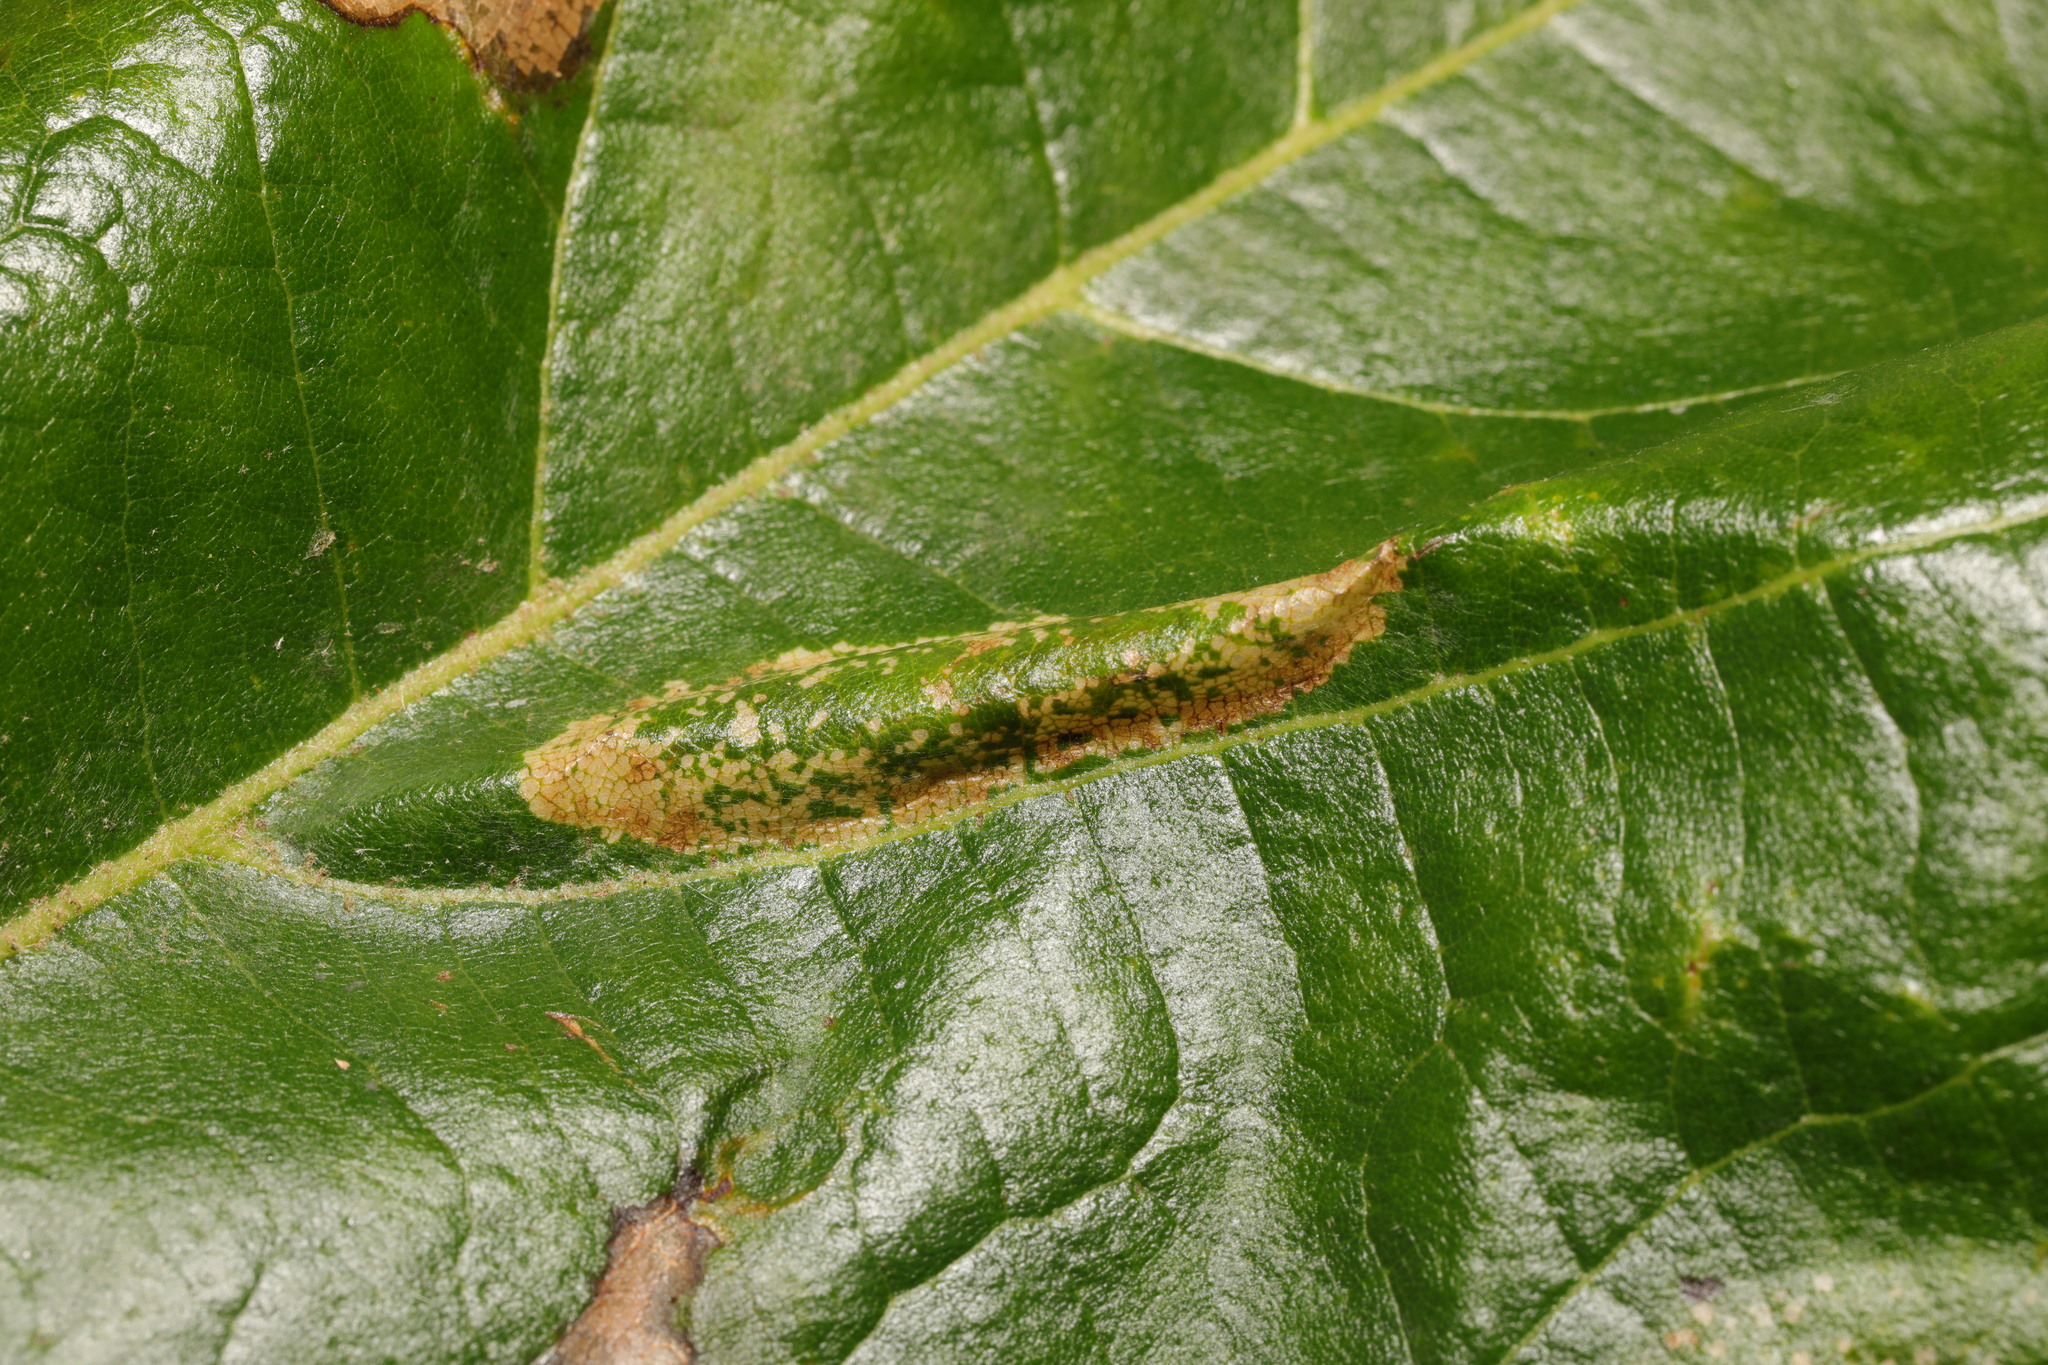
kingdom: Animalia
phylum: Arthropoda
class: Insecta
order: Lepidoptera
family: Gracillariidae
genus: Phyllonorycter
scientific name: Phyllonorycter platani
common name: London midget
